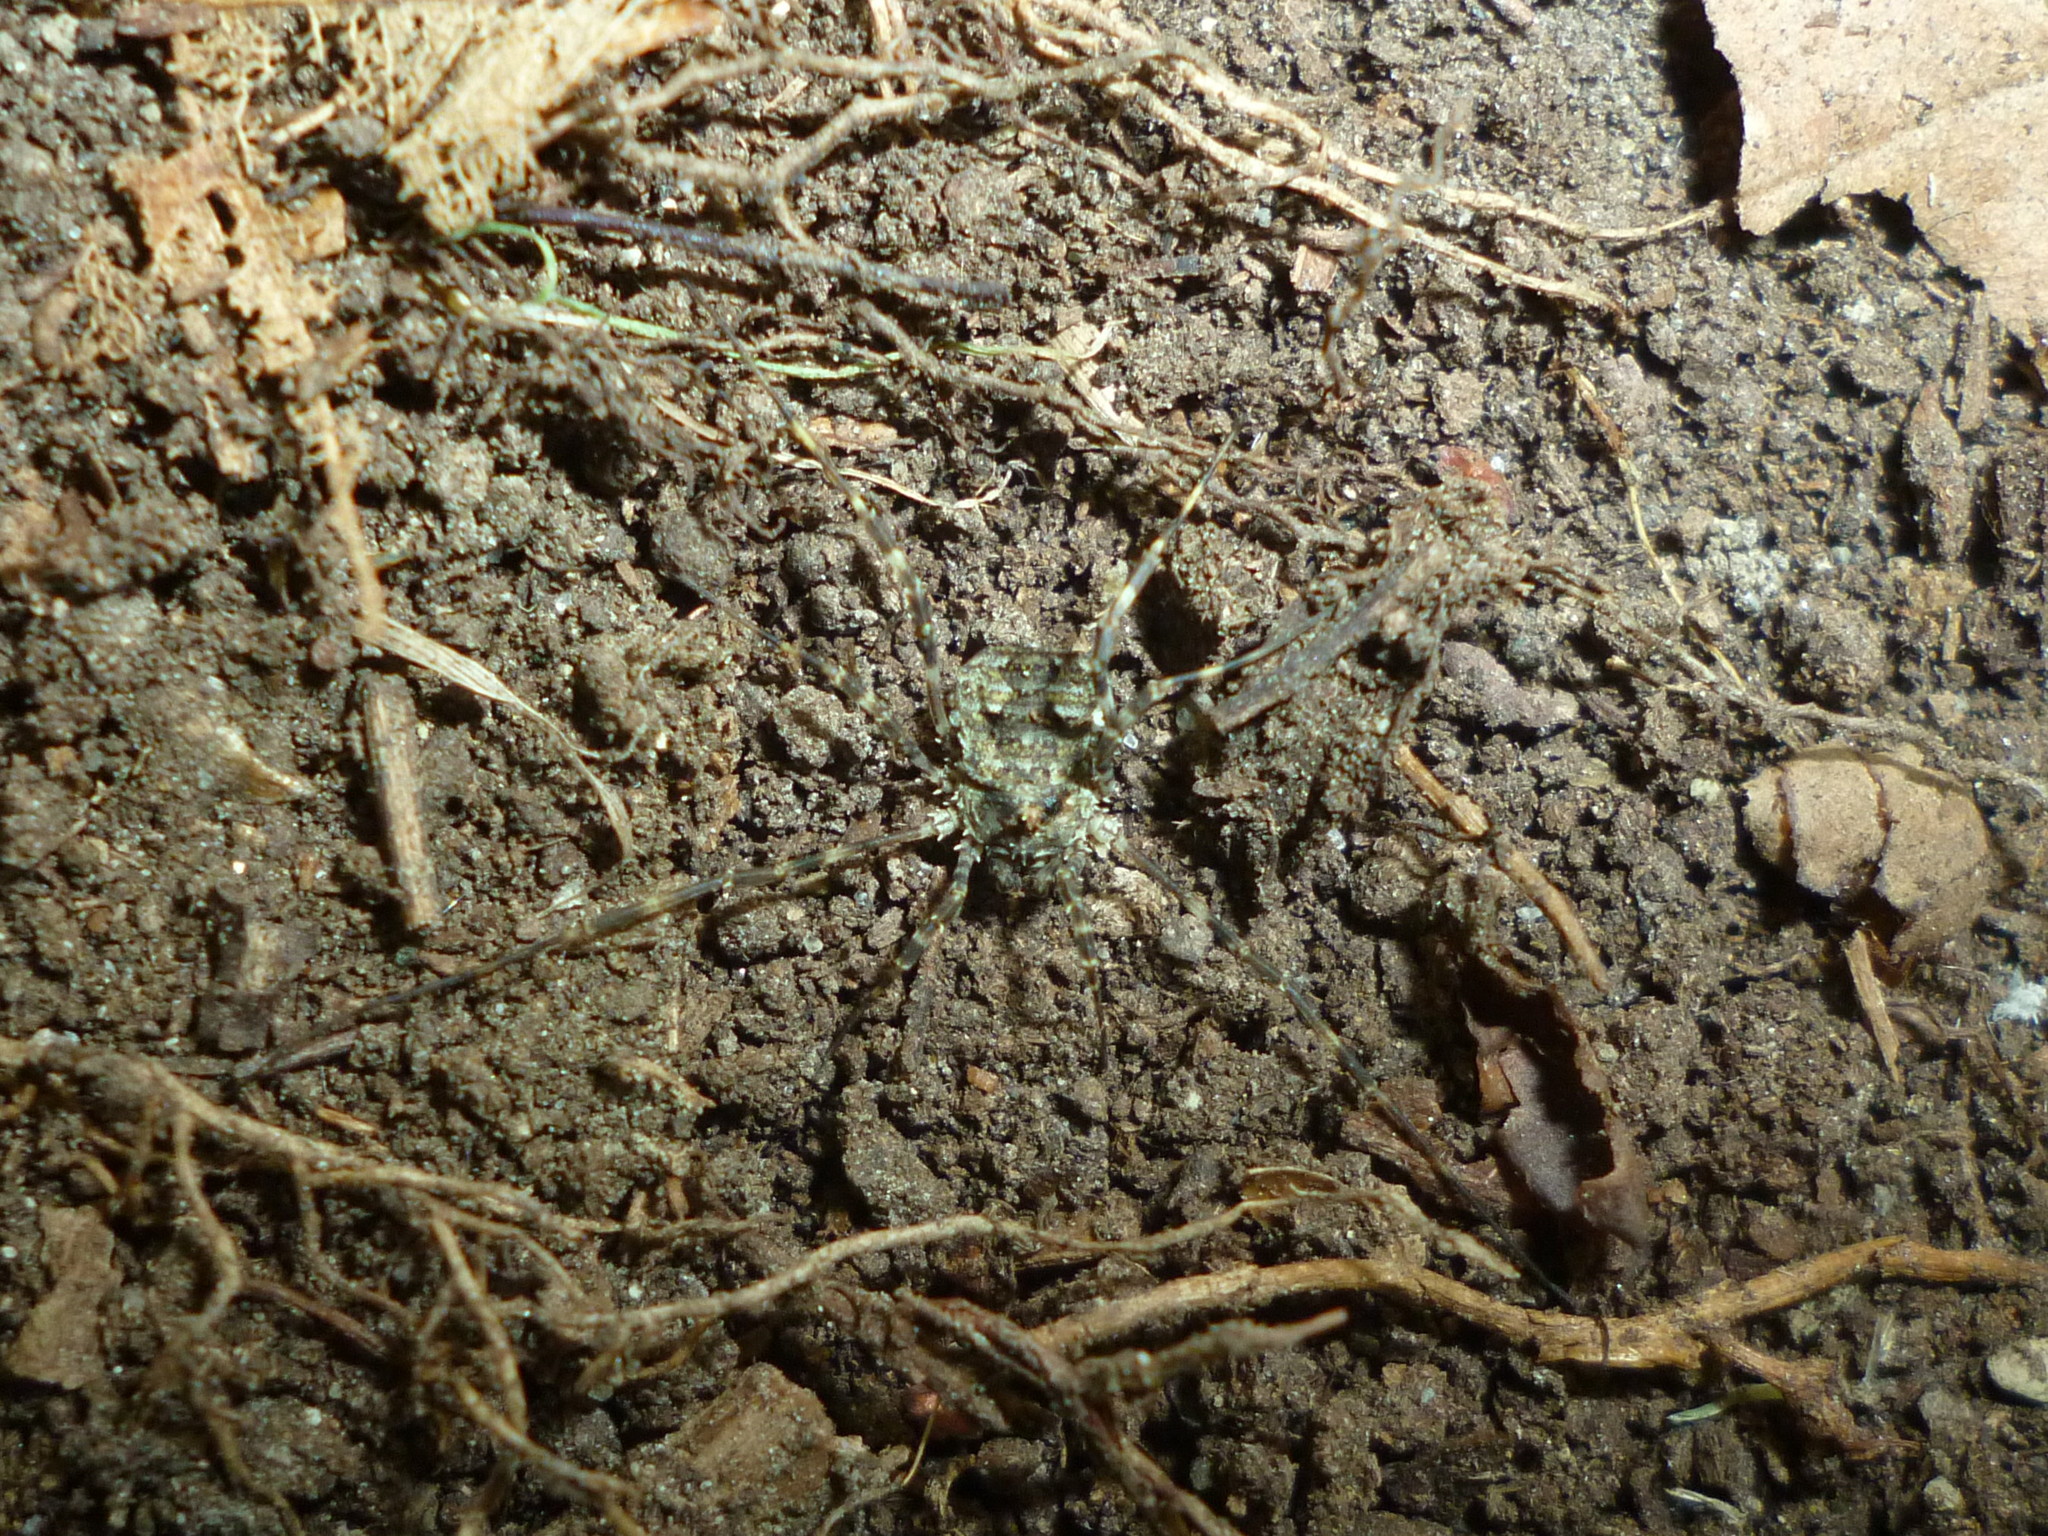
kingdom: Animalia
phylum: Arthropoda
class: Arachnida
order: Opiliones
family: Phalangiidae
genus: Odiellus
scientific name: Odiellus pictus
